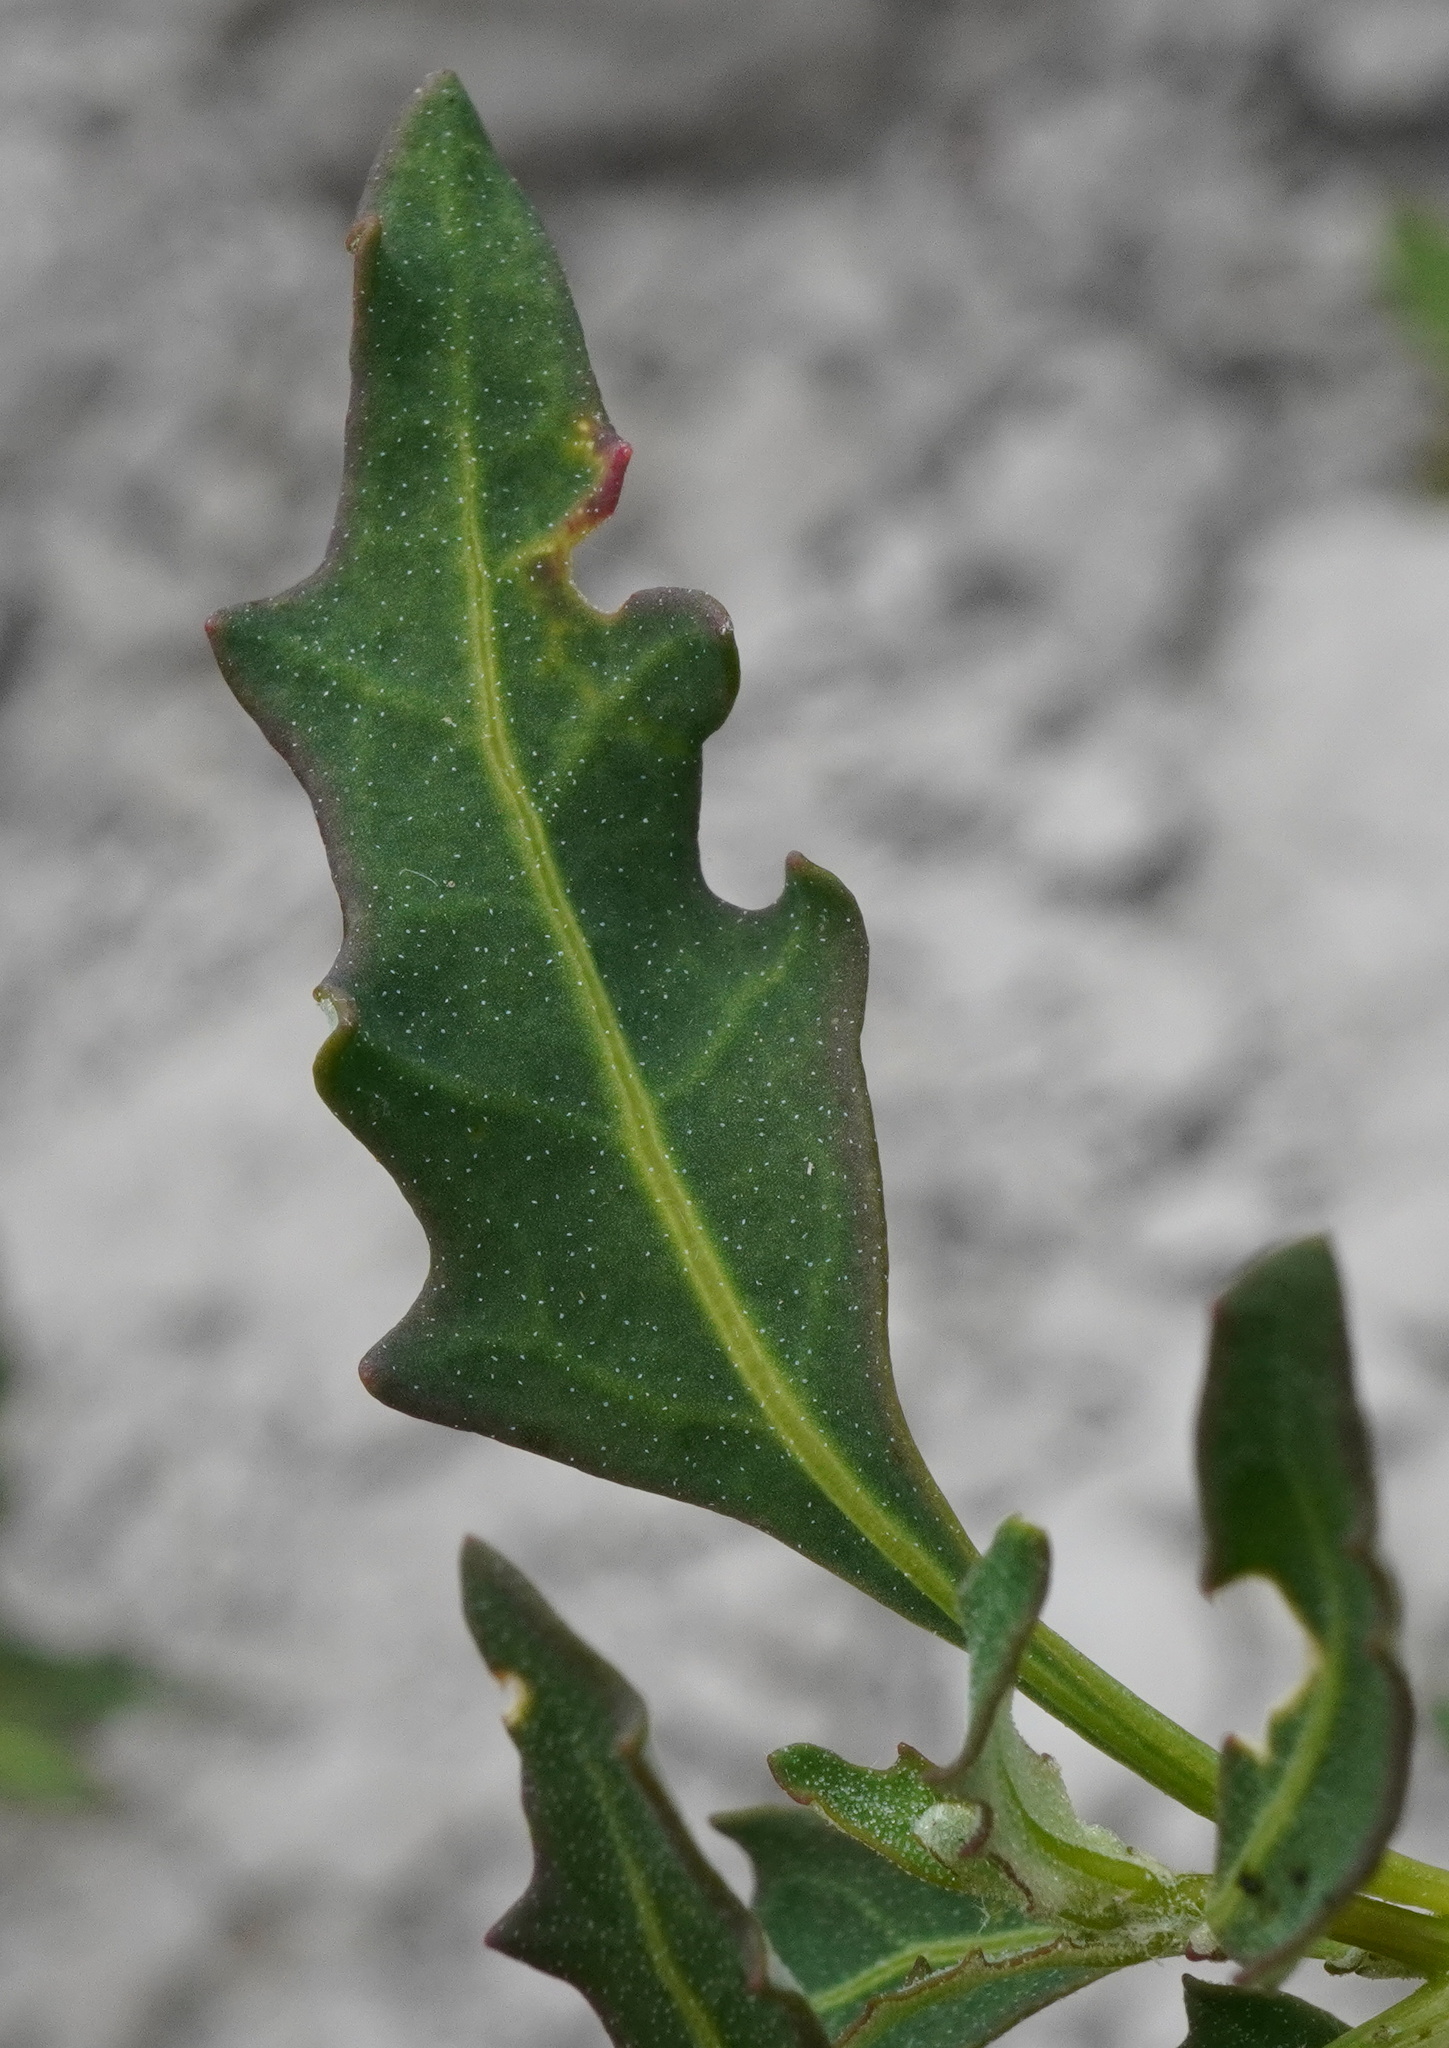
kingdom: Plantae
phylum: Tracheophyta
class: Magnoliopsida
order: Caryophyllales
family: Amaranthaceae
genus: Oxybasis
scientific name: Oxybasis glauca
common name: Glaucous goosefoot
